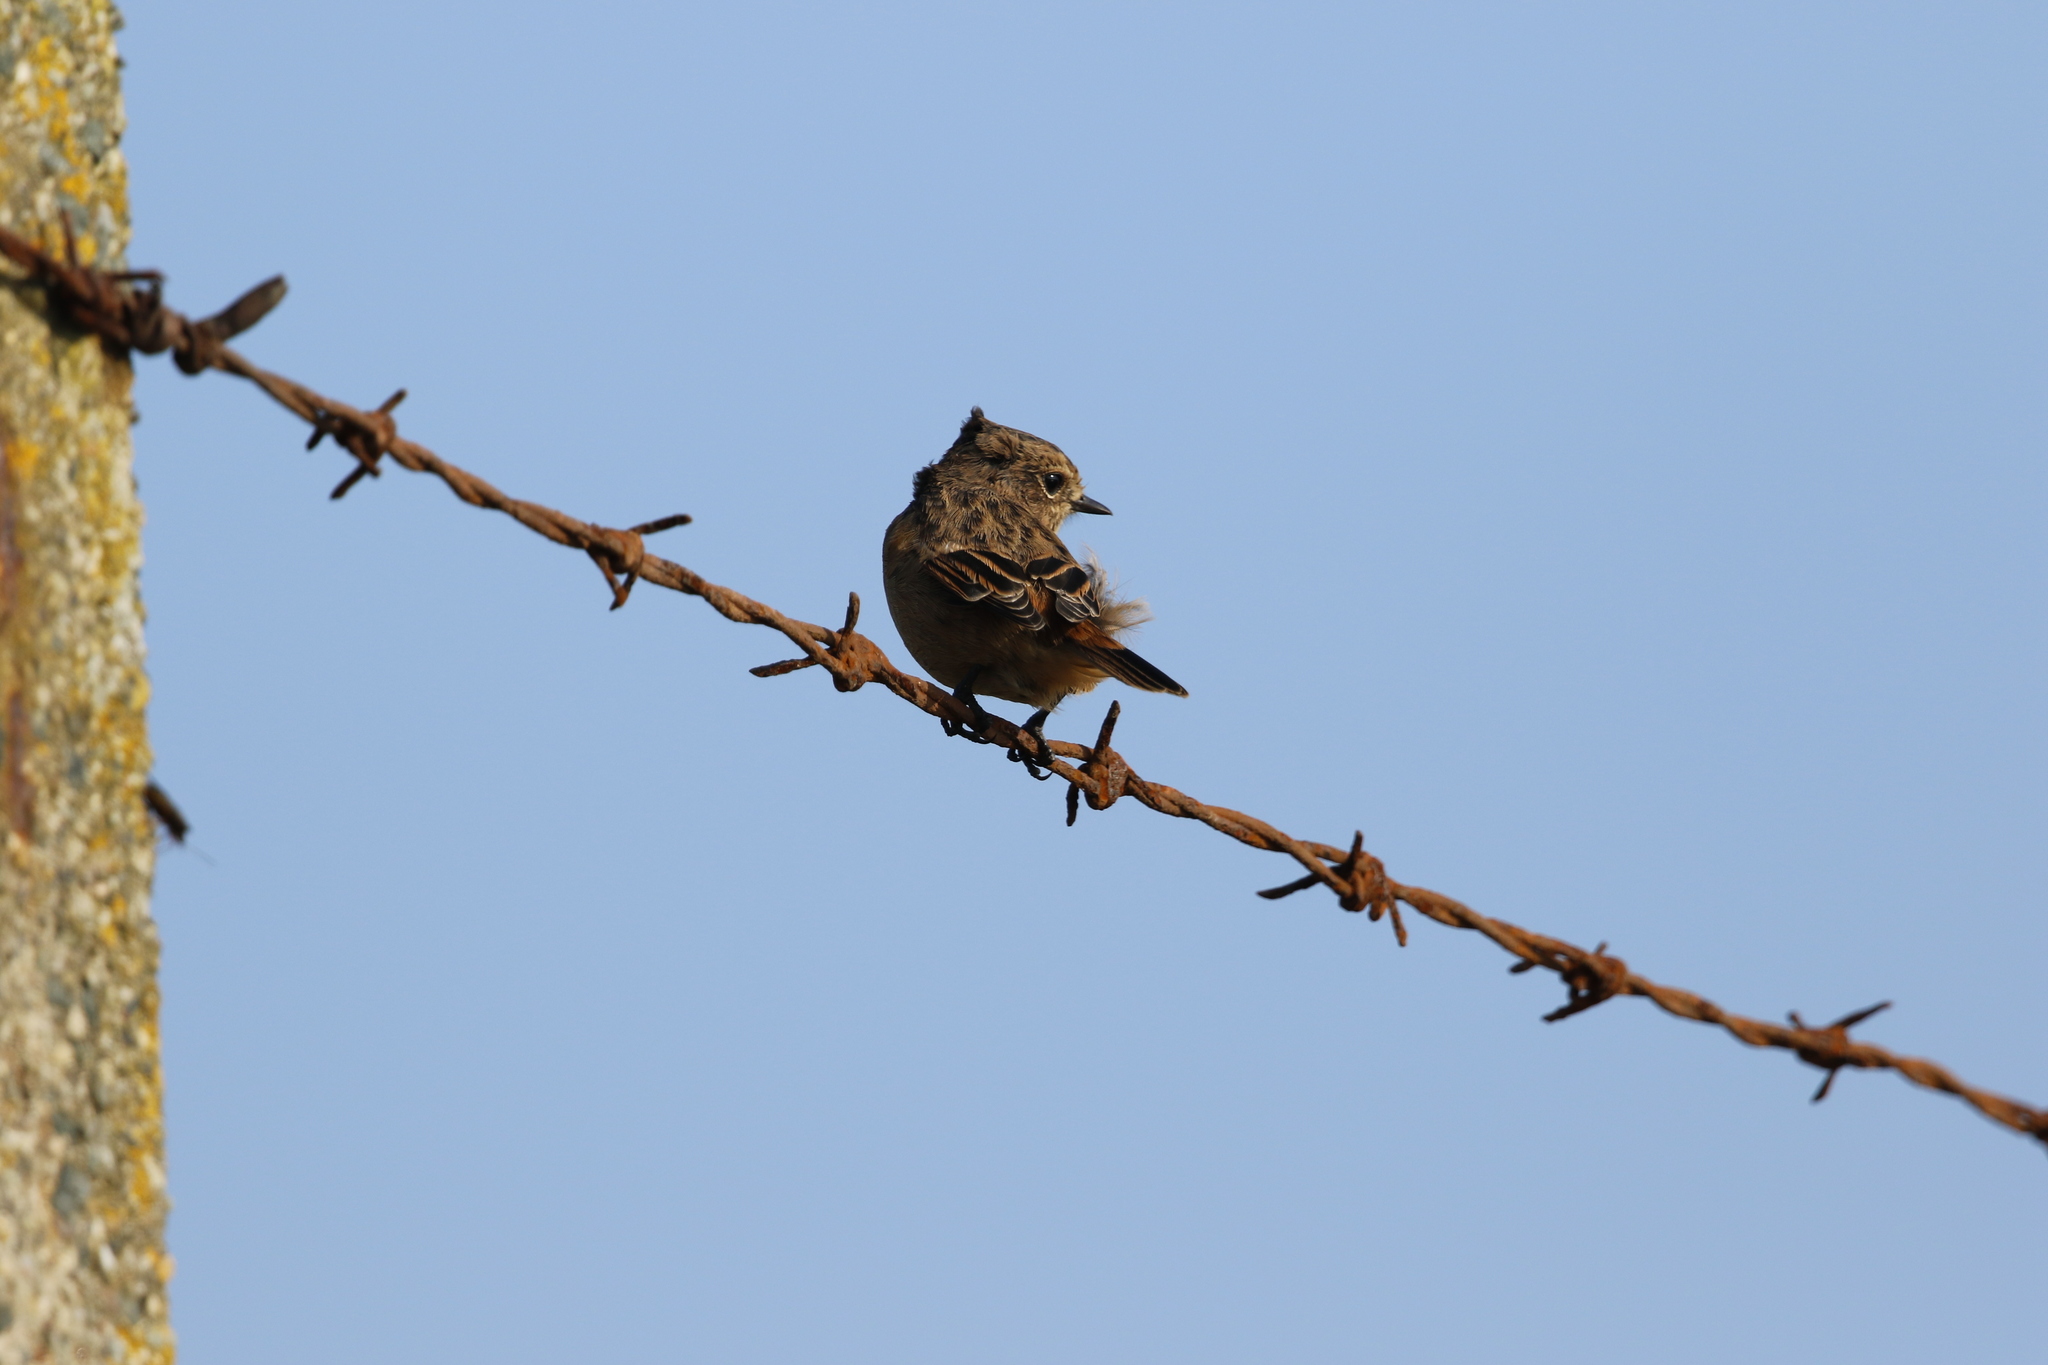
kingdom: Animalia
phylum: Chordata
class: Aves
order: Passeriformes
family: Muscicapidae
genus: Saxicola
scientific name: Saxicola rubicola
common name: European stonechat
